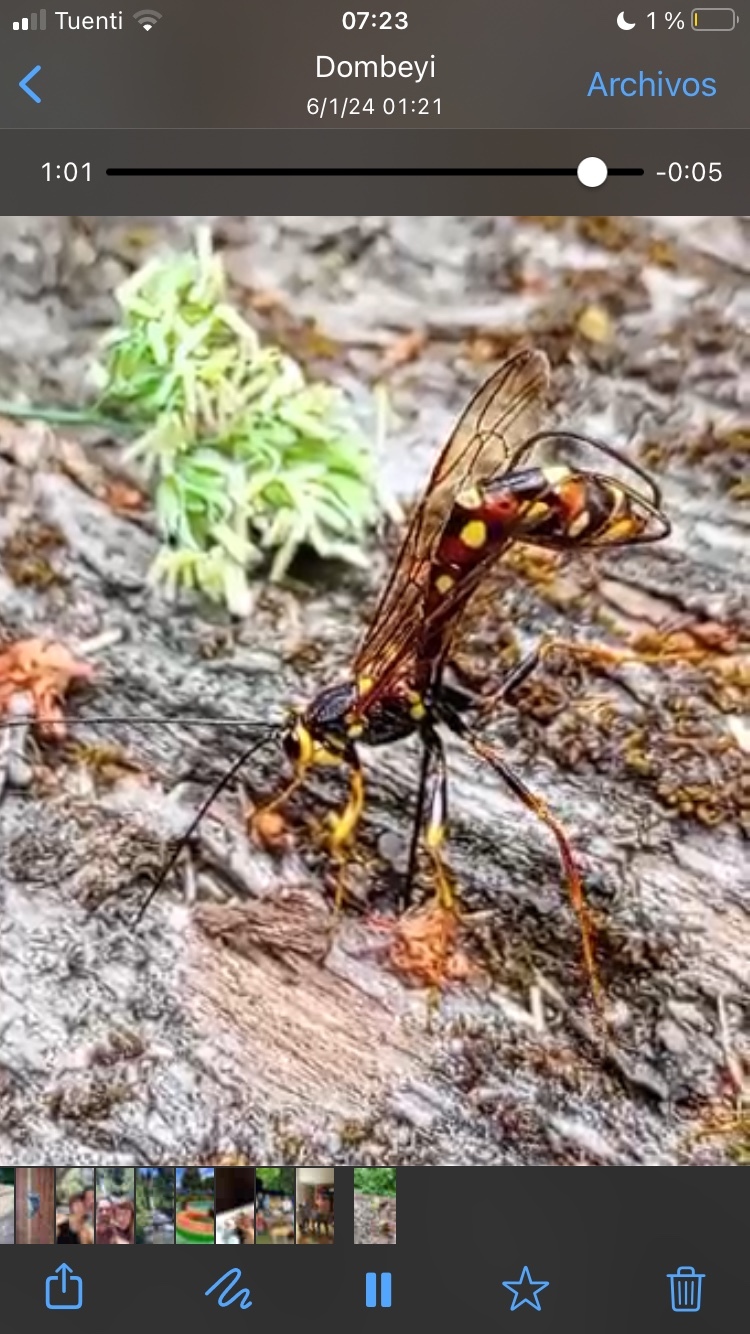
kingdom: Animalia
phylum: Arthropoda
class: Insecta
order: Hymenoptera
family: Ichneumonidae
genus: Megarhyssa
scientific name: Megarhyssa nortoni
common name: Norton's giant ichneumonid wasp
